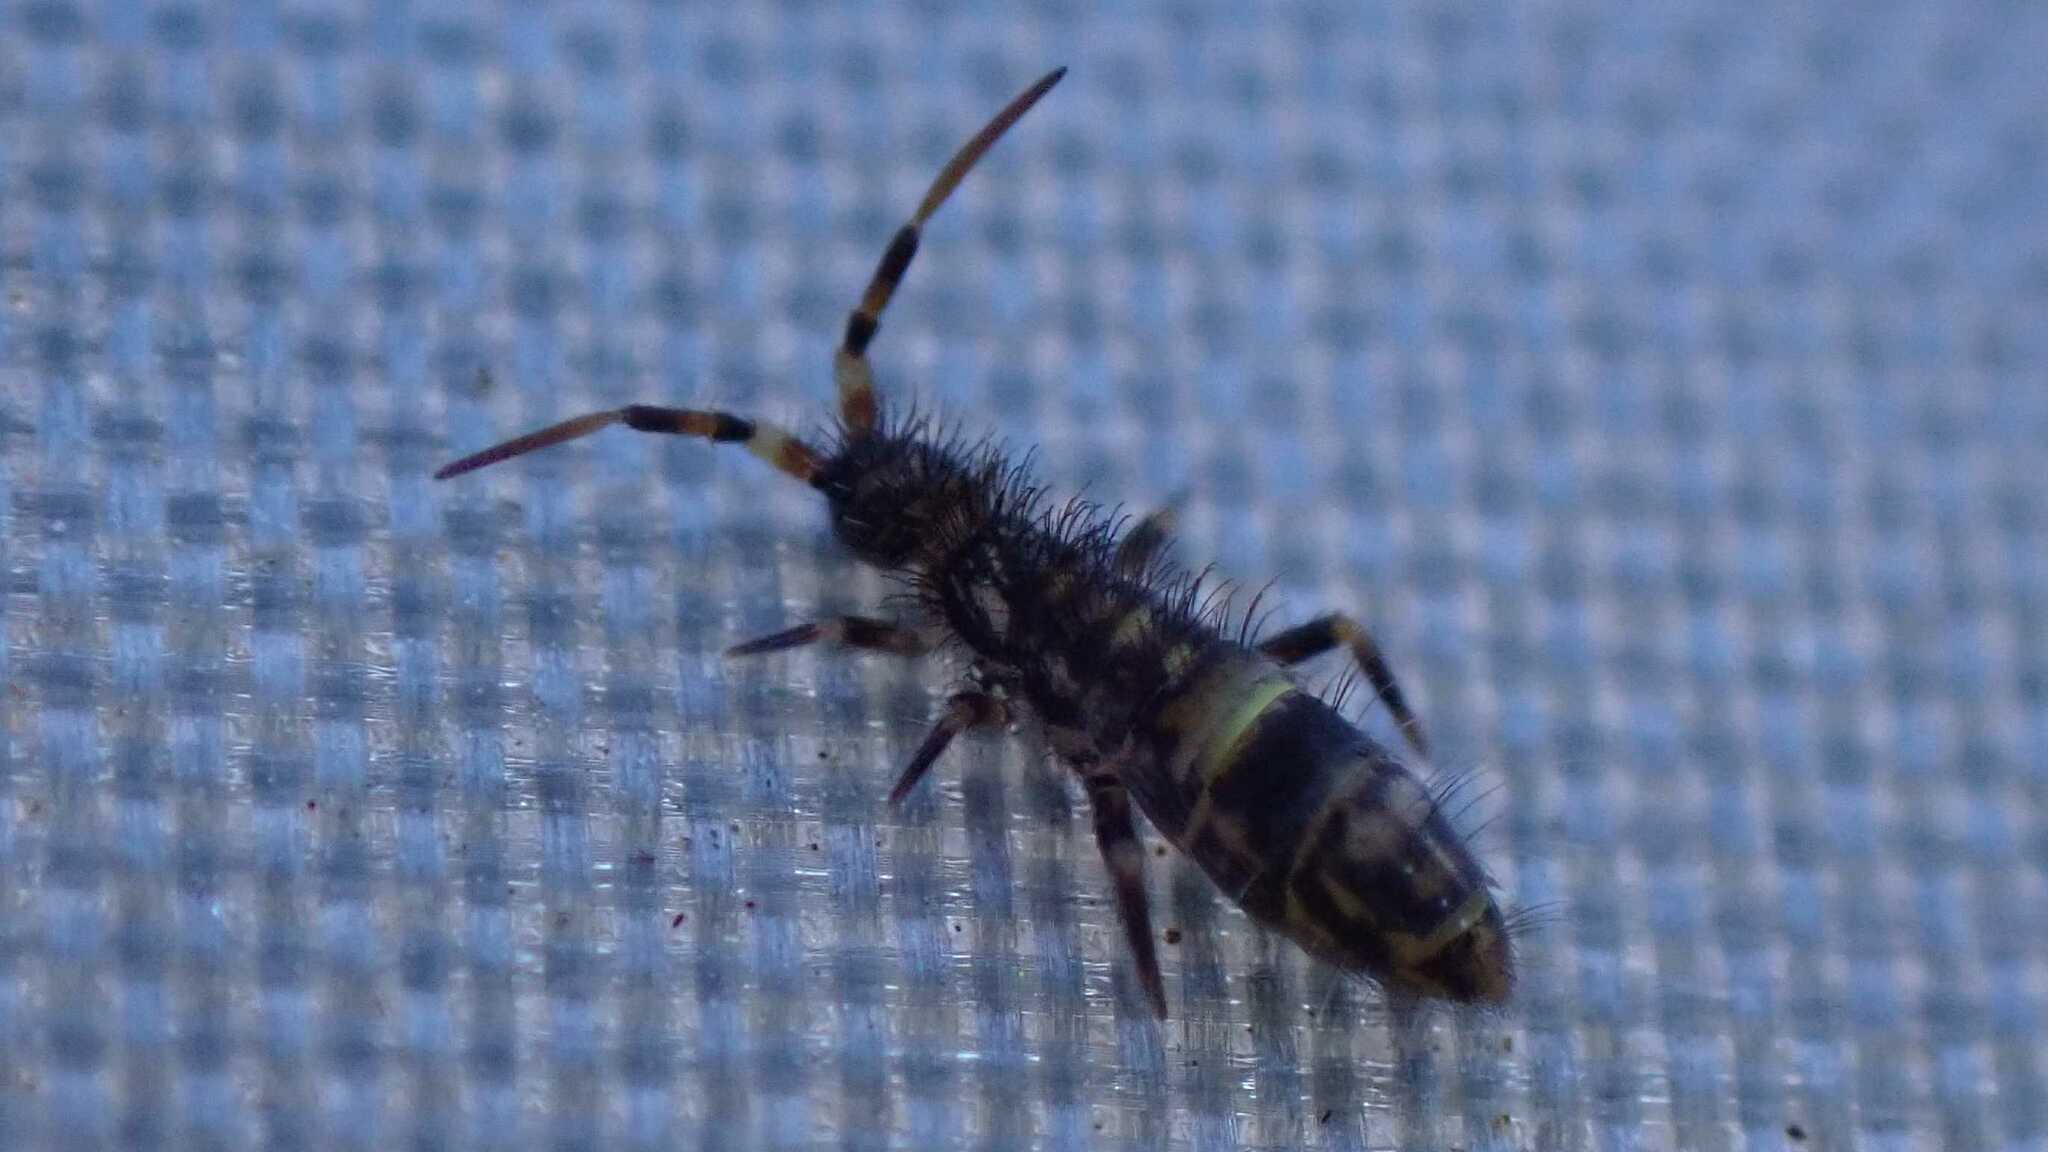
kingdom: Animalia
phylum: Arthropoda
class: Collembola
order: Entomobryomorpha
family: Orchesellidae
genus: Orchesella
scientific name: Orchesella cincta
